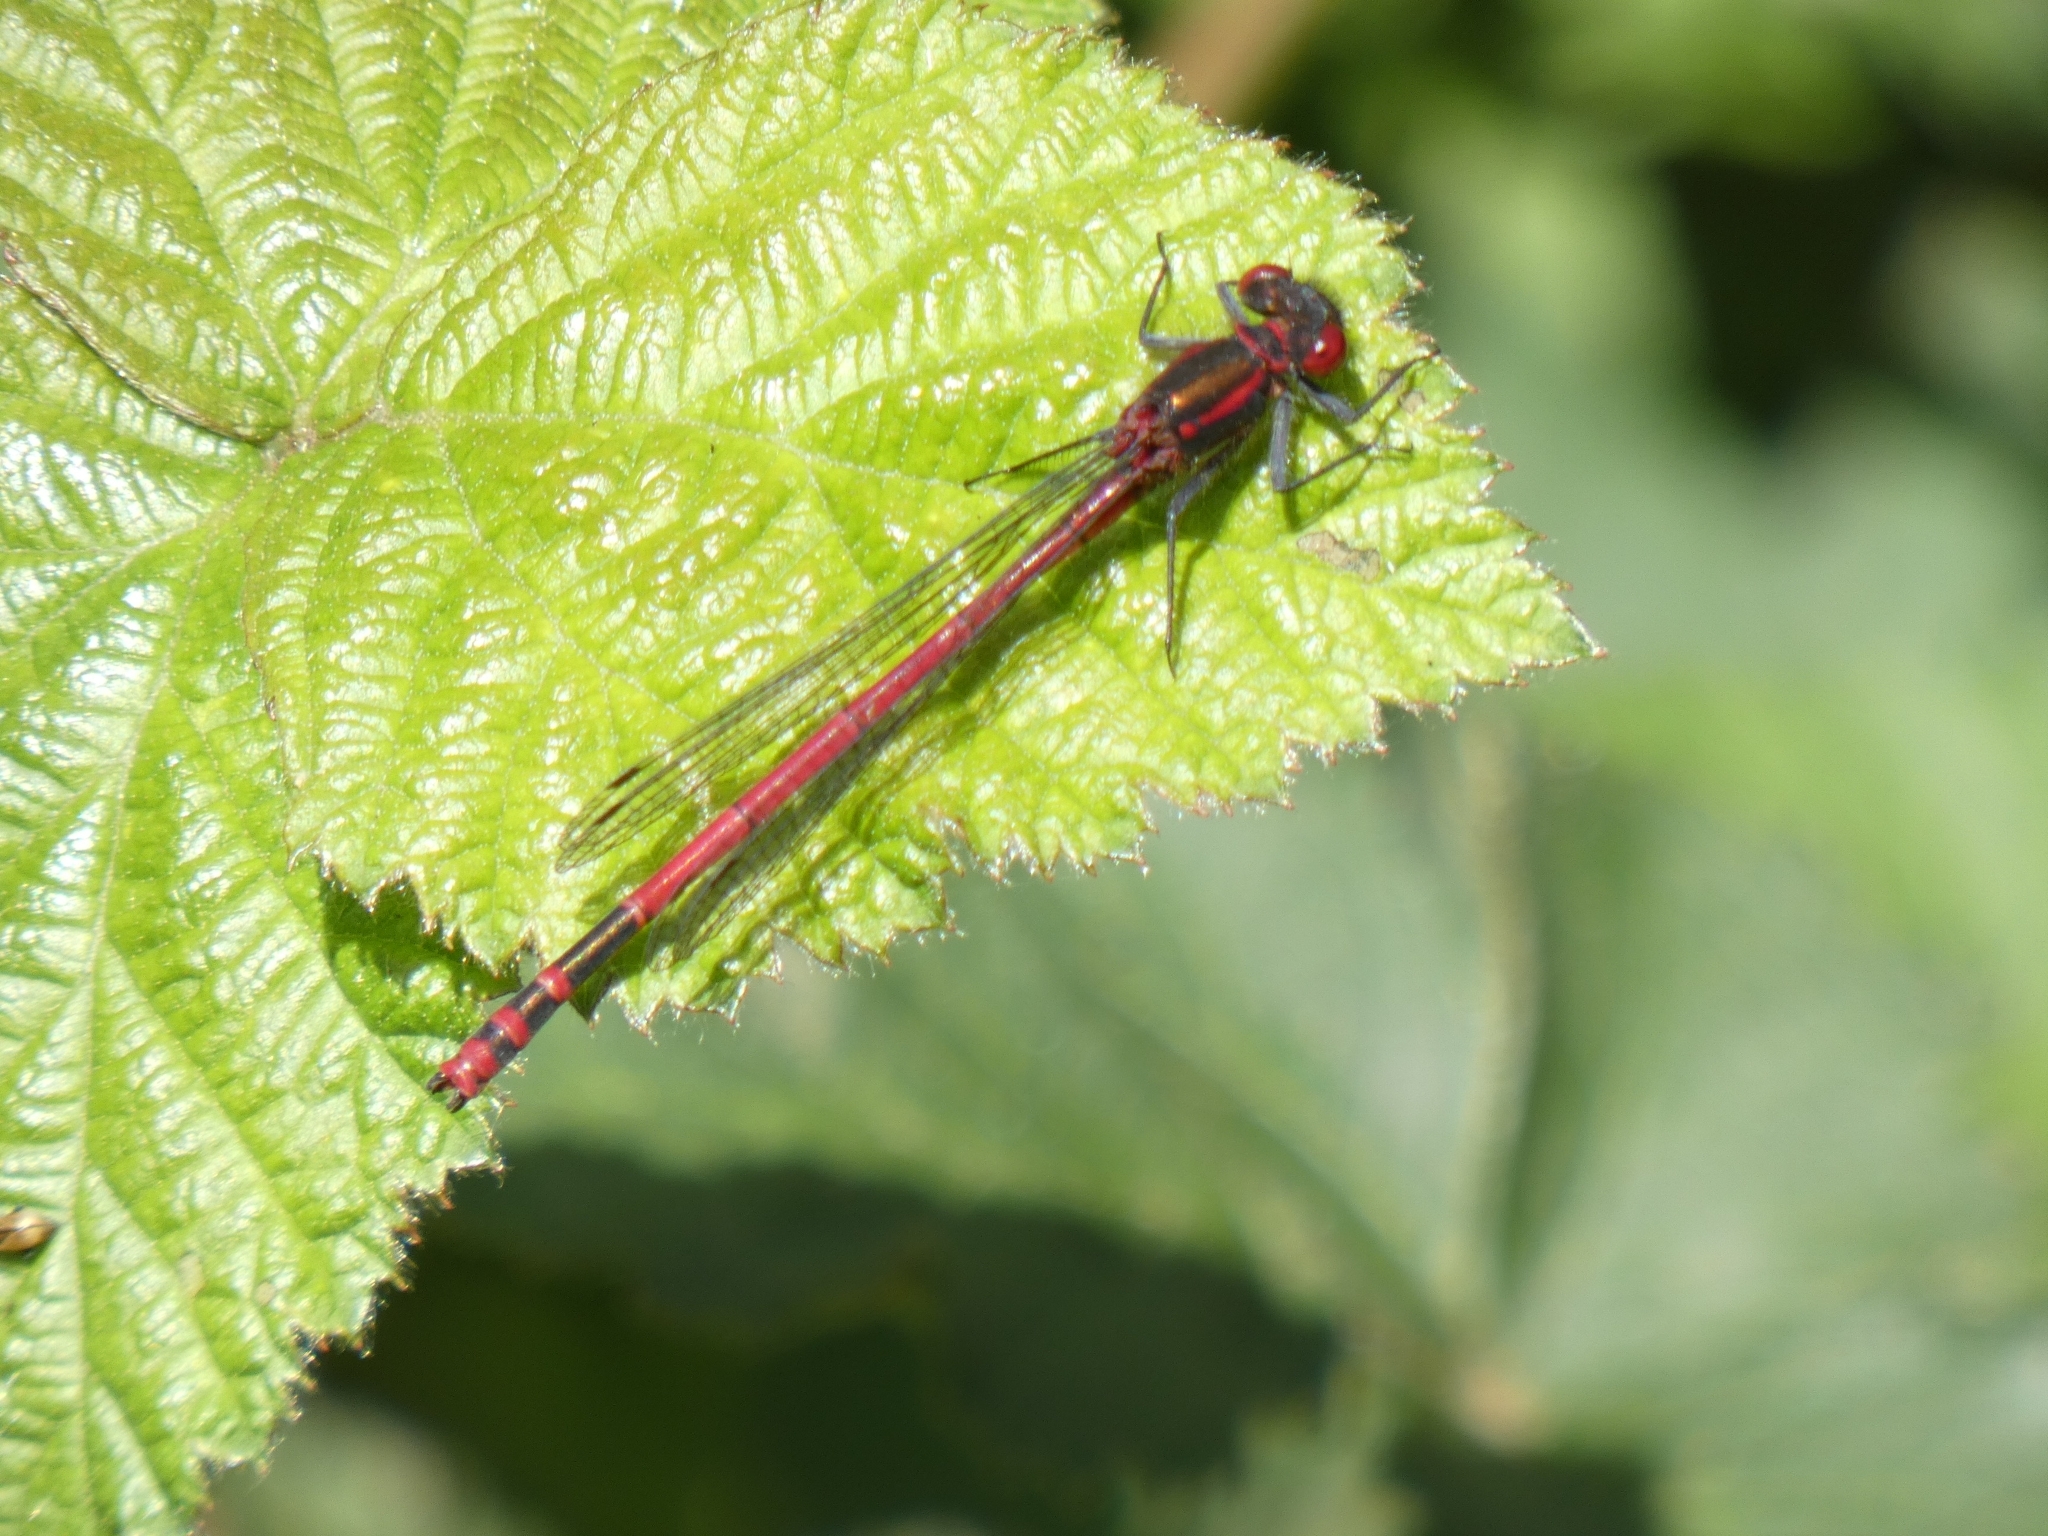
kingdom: Animalia
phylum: Arthropoda
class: Insecta
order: Odonata
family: Coenagrionidae
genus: Pyrrhosoma
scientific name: Pyrrhosoma nymphula
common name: Large red damsel
